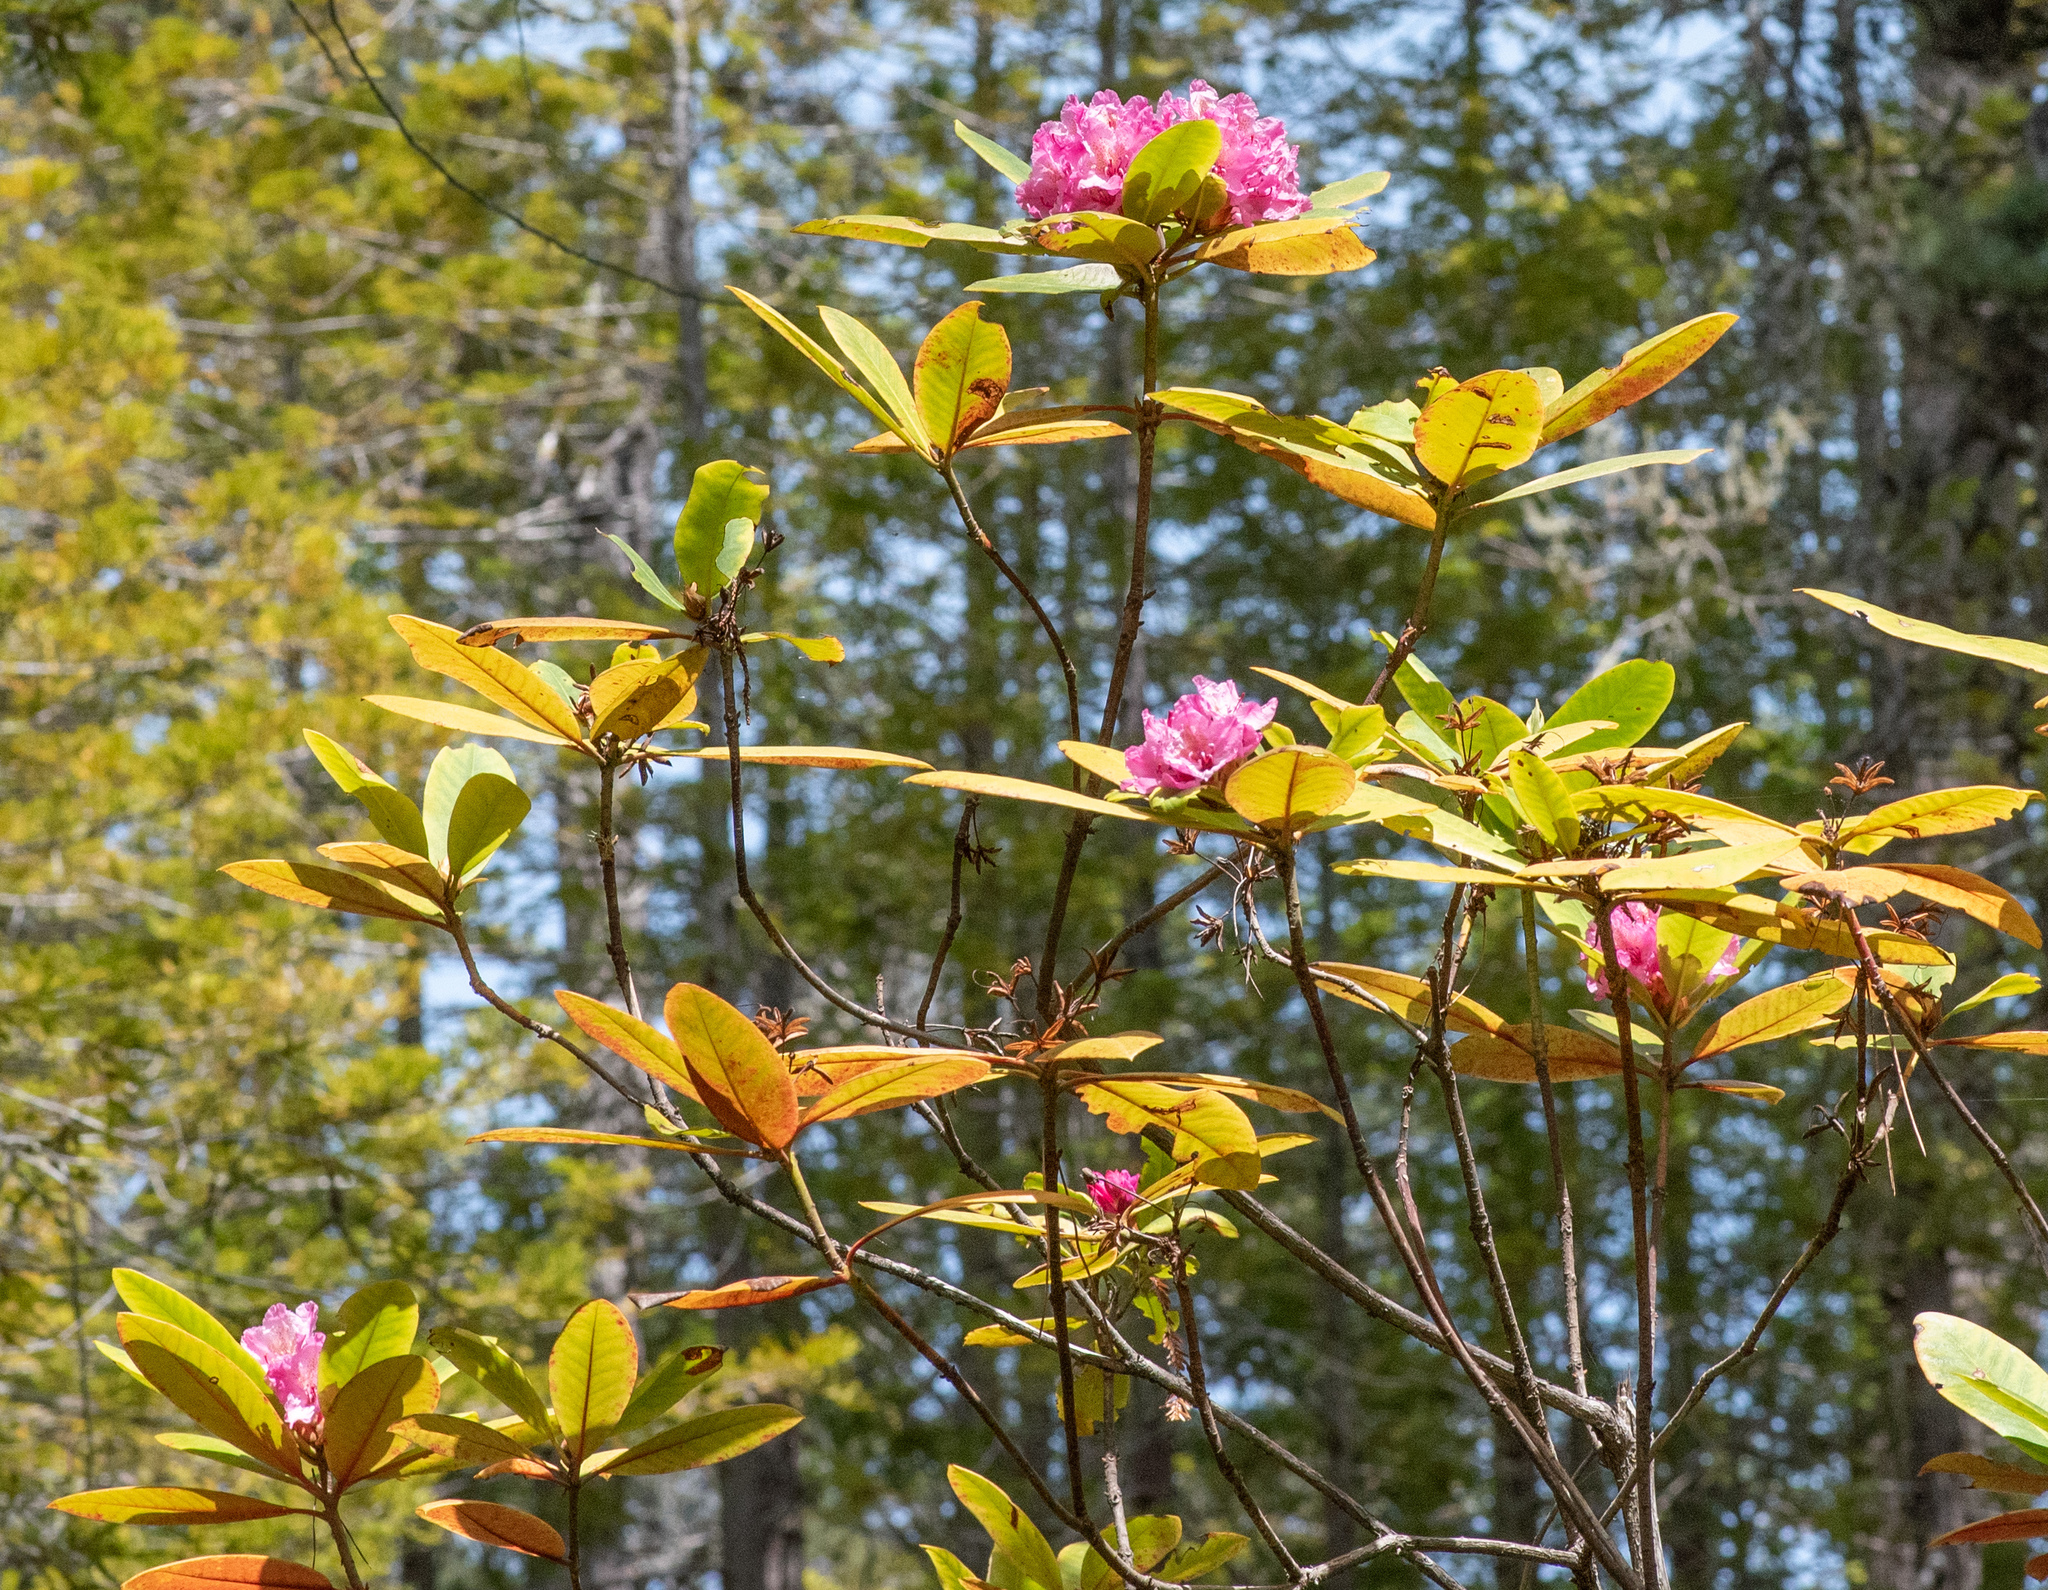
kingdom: Plantae
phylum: Tracheophyta
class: Magnoliopsida
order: Ericales
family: Ericaceae
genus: Rhododendron
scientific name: Rhododendron macrophyllum
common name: California rose bay
